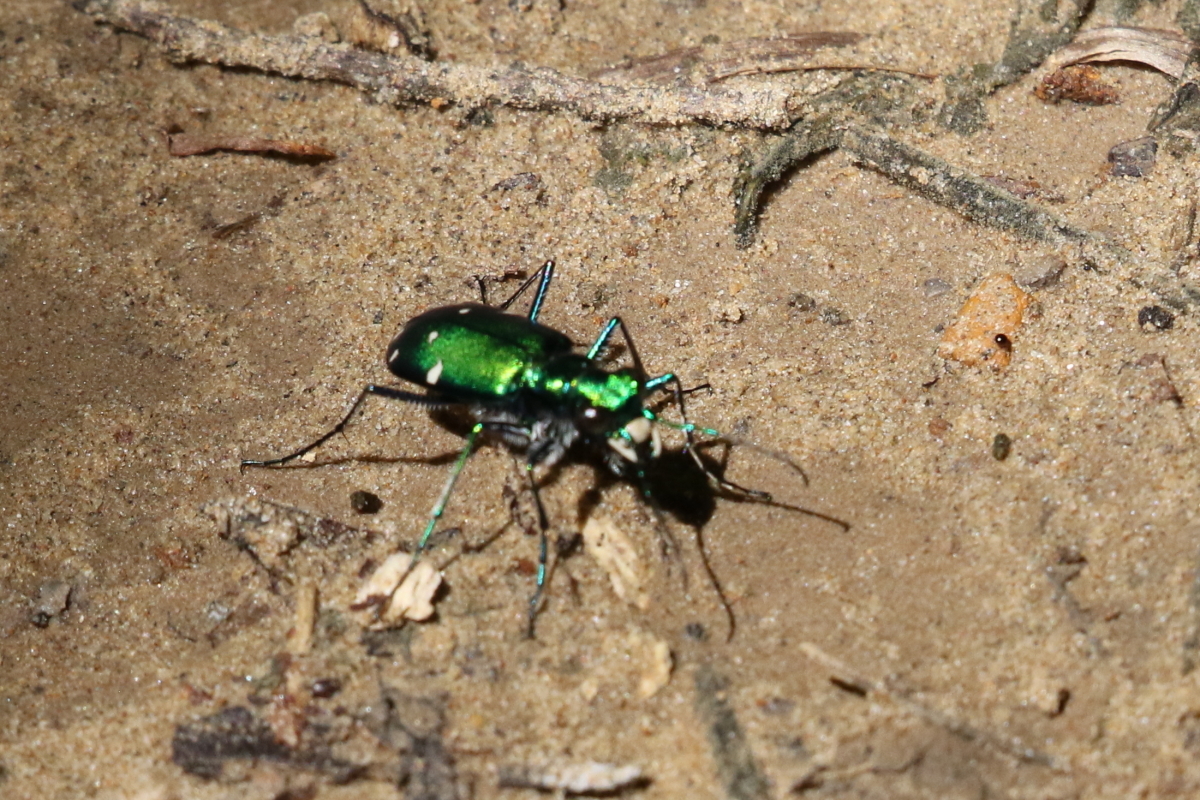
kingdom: Animalia
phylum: Arthropoda
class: Insecta
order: Coleoptera
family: Carabidae
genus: Cicindela
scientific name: Cicindela sexguttata
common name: Six-spotted tiger beetle
